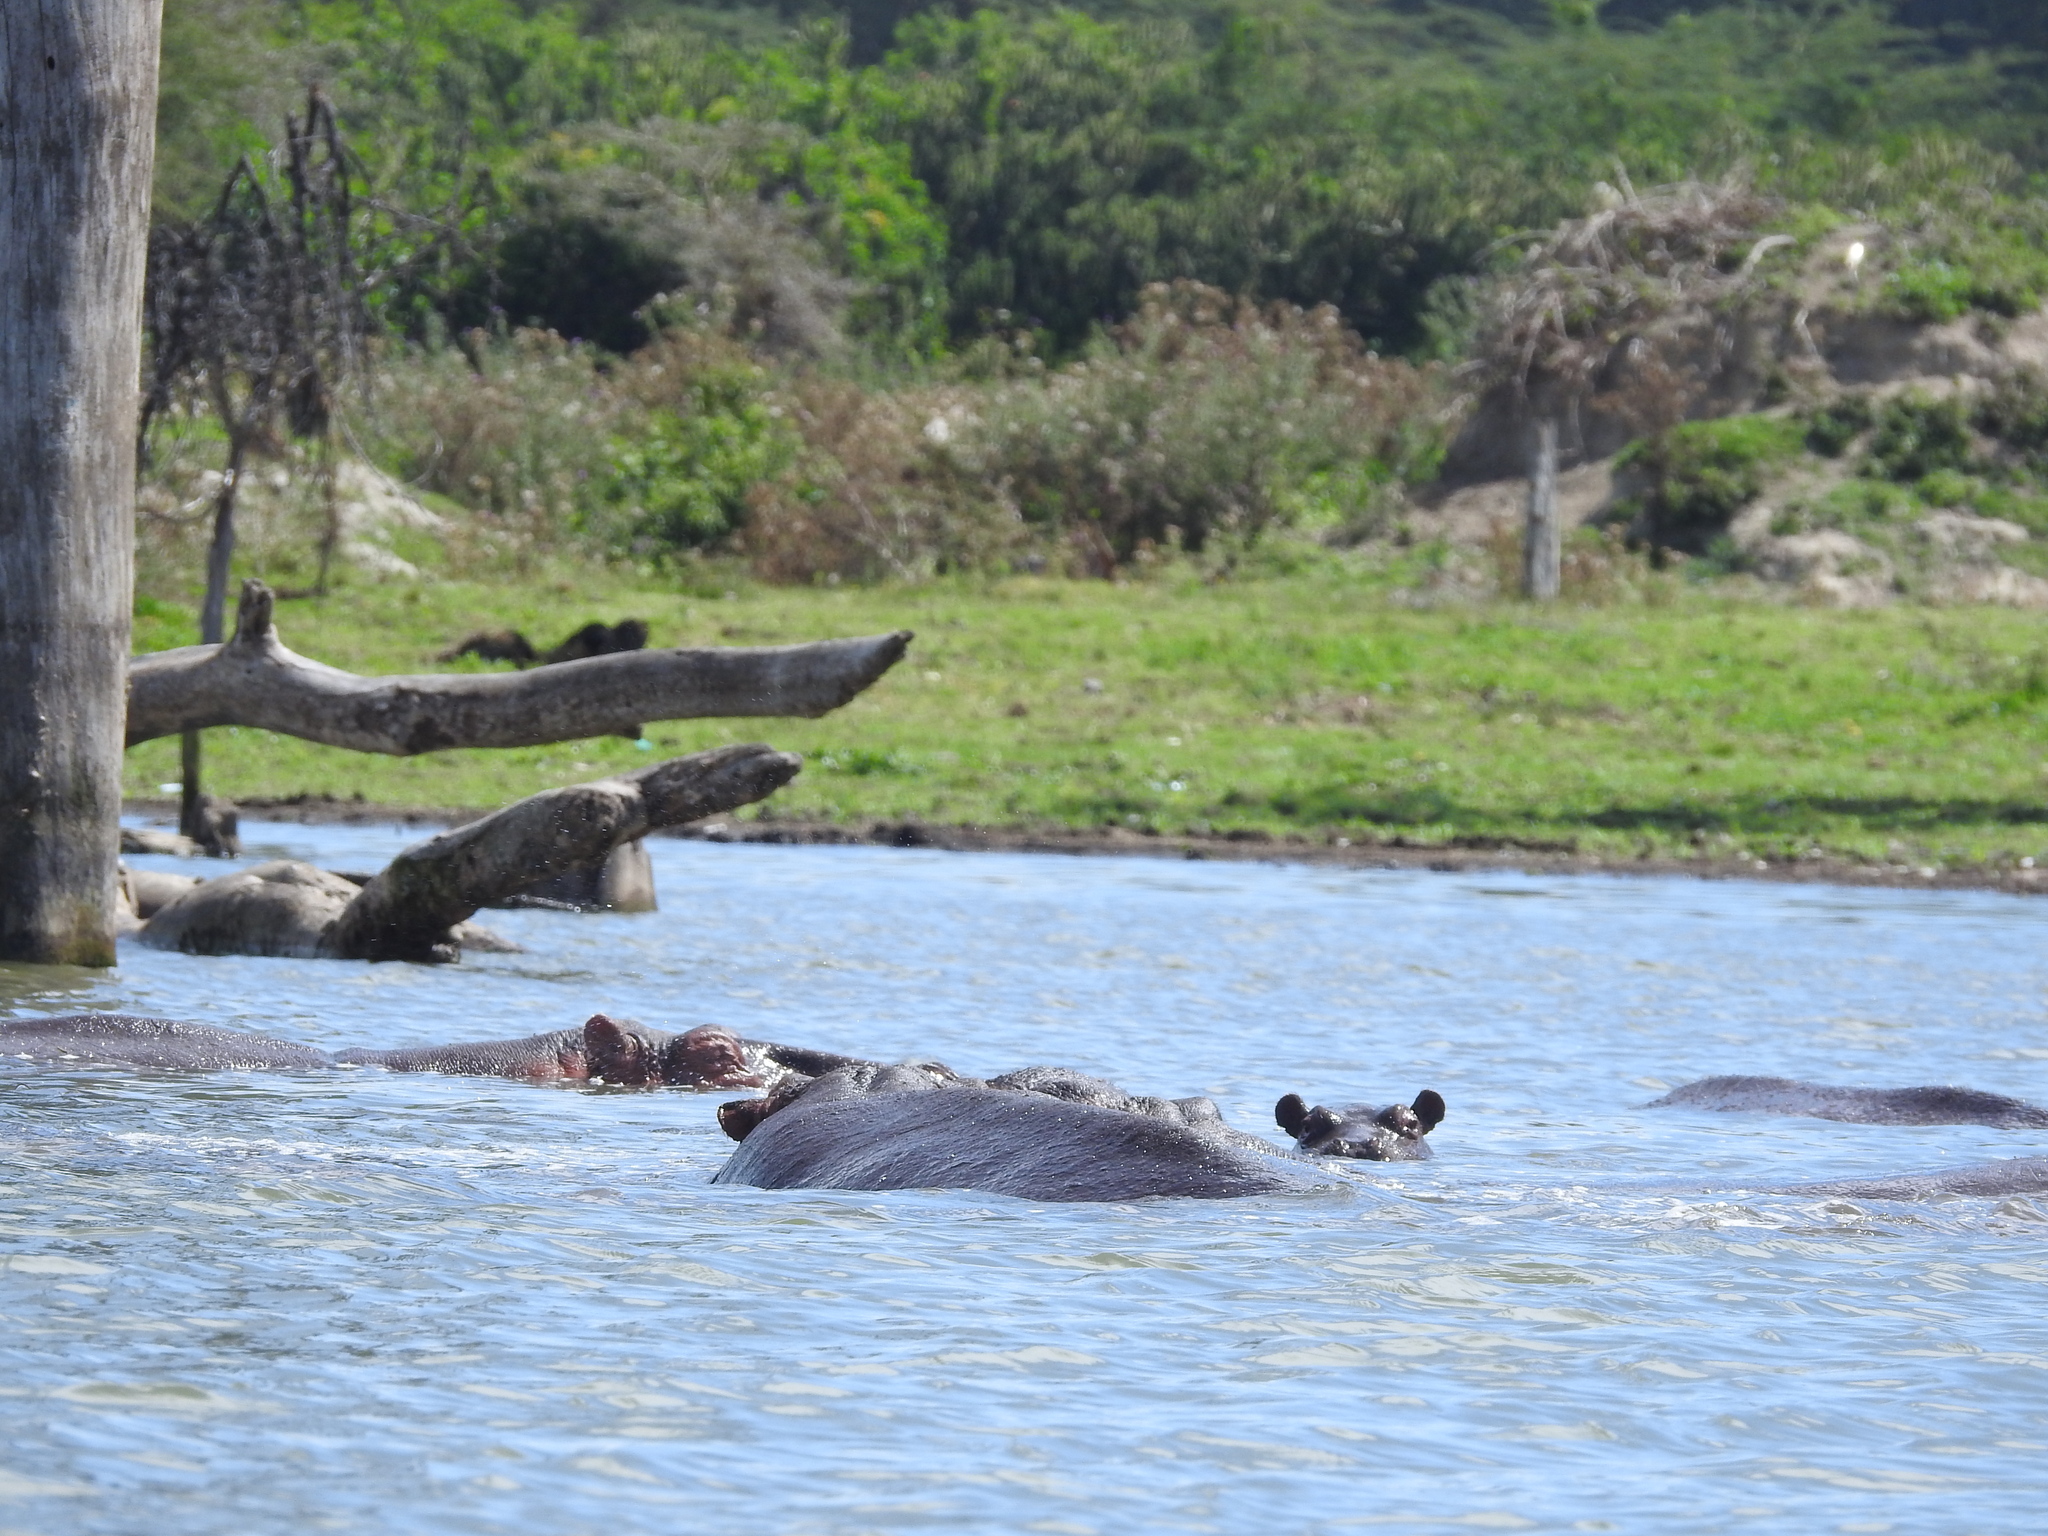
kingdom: Animalia
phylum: Chordata
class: Mammalia
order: Artiodactyla
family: Hippopotamidae
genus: Hippopotamus
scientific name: Hippopotamus amphibius
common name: Common hippopotamus
